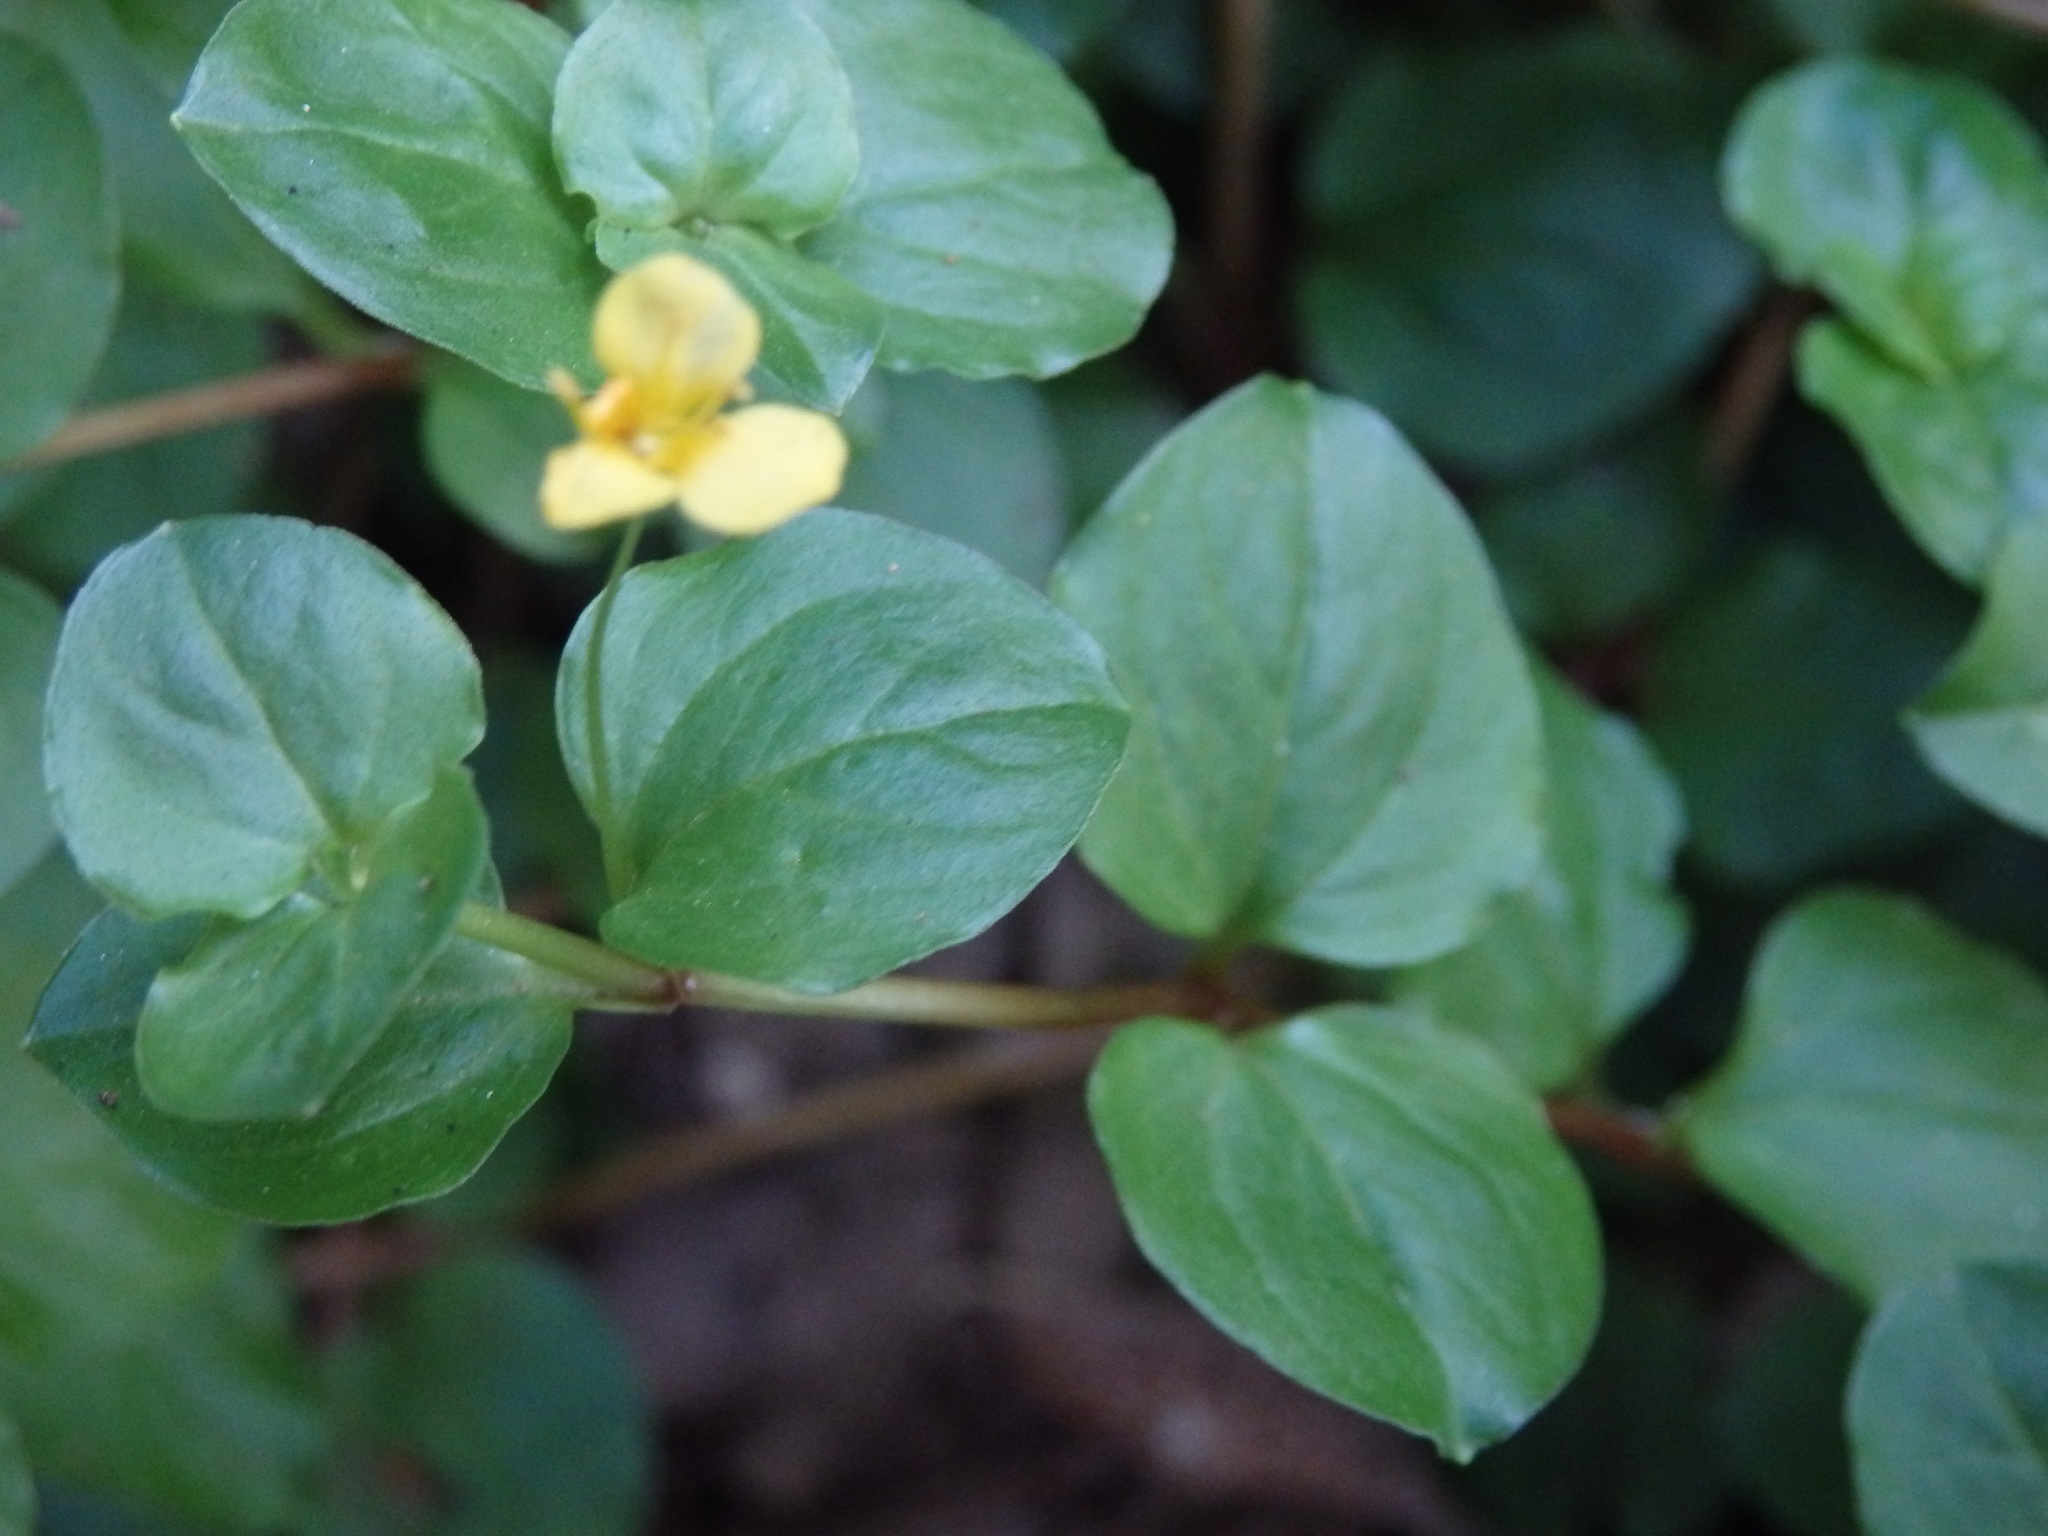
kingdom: Plantae
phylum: Tracheophyta
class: Magnoliopsida
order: Ericales
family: Primulaceae
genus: Lysimachia
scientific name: Lysimachia nemorum
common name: Yellow pimpernel
